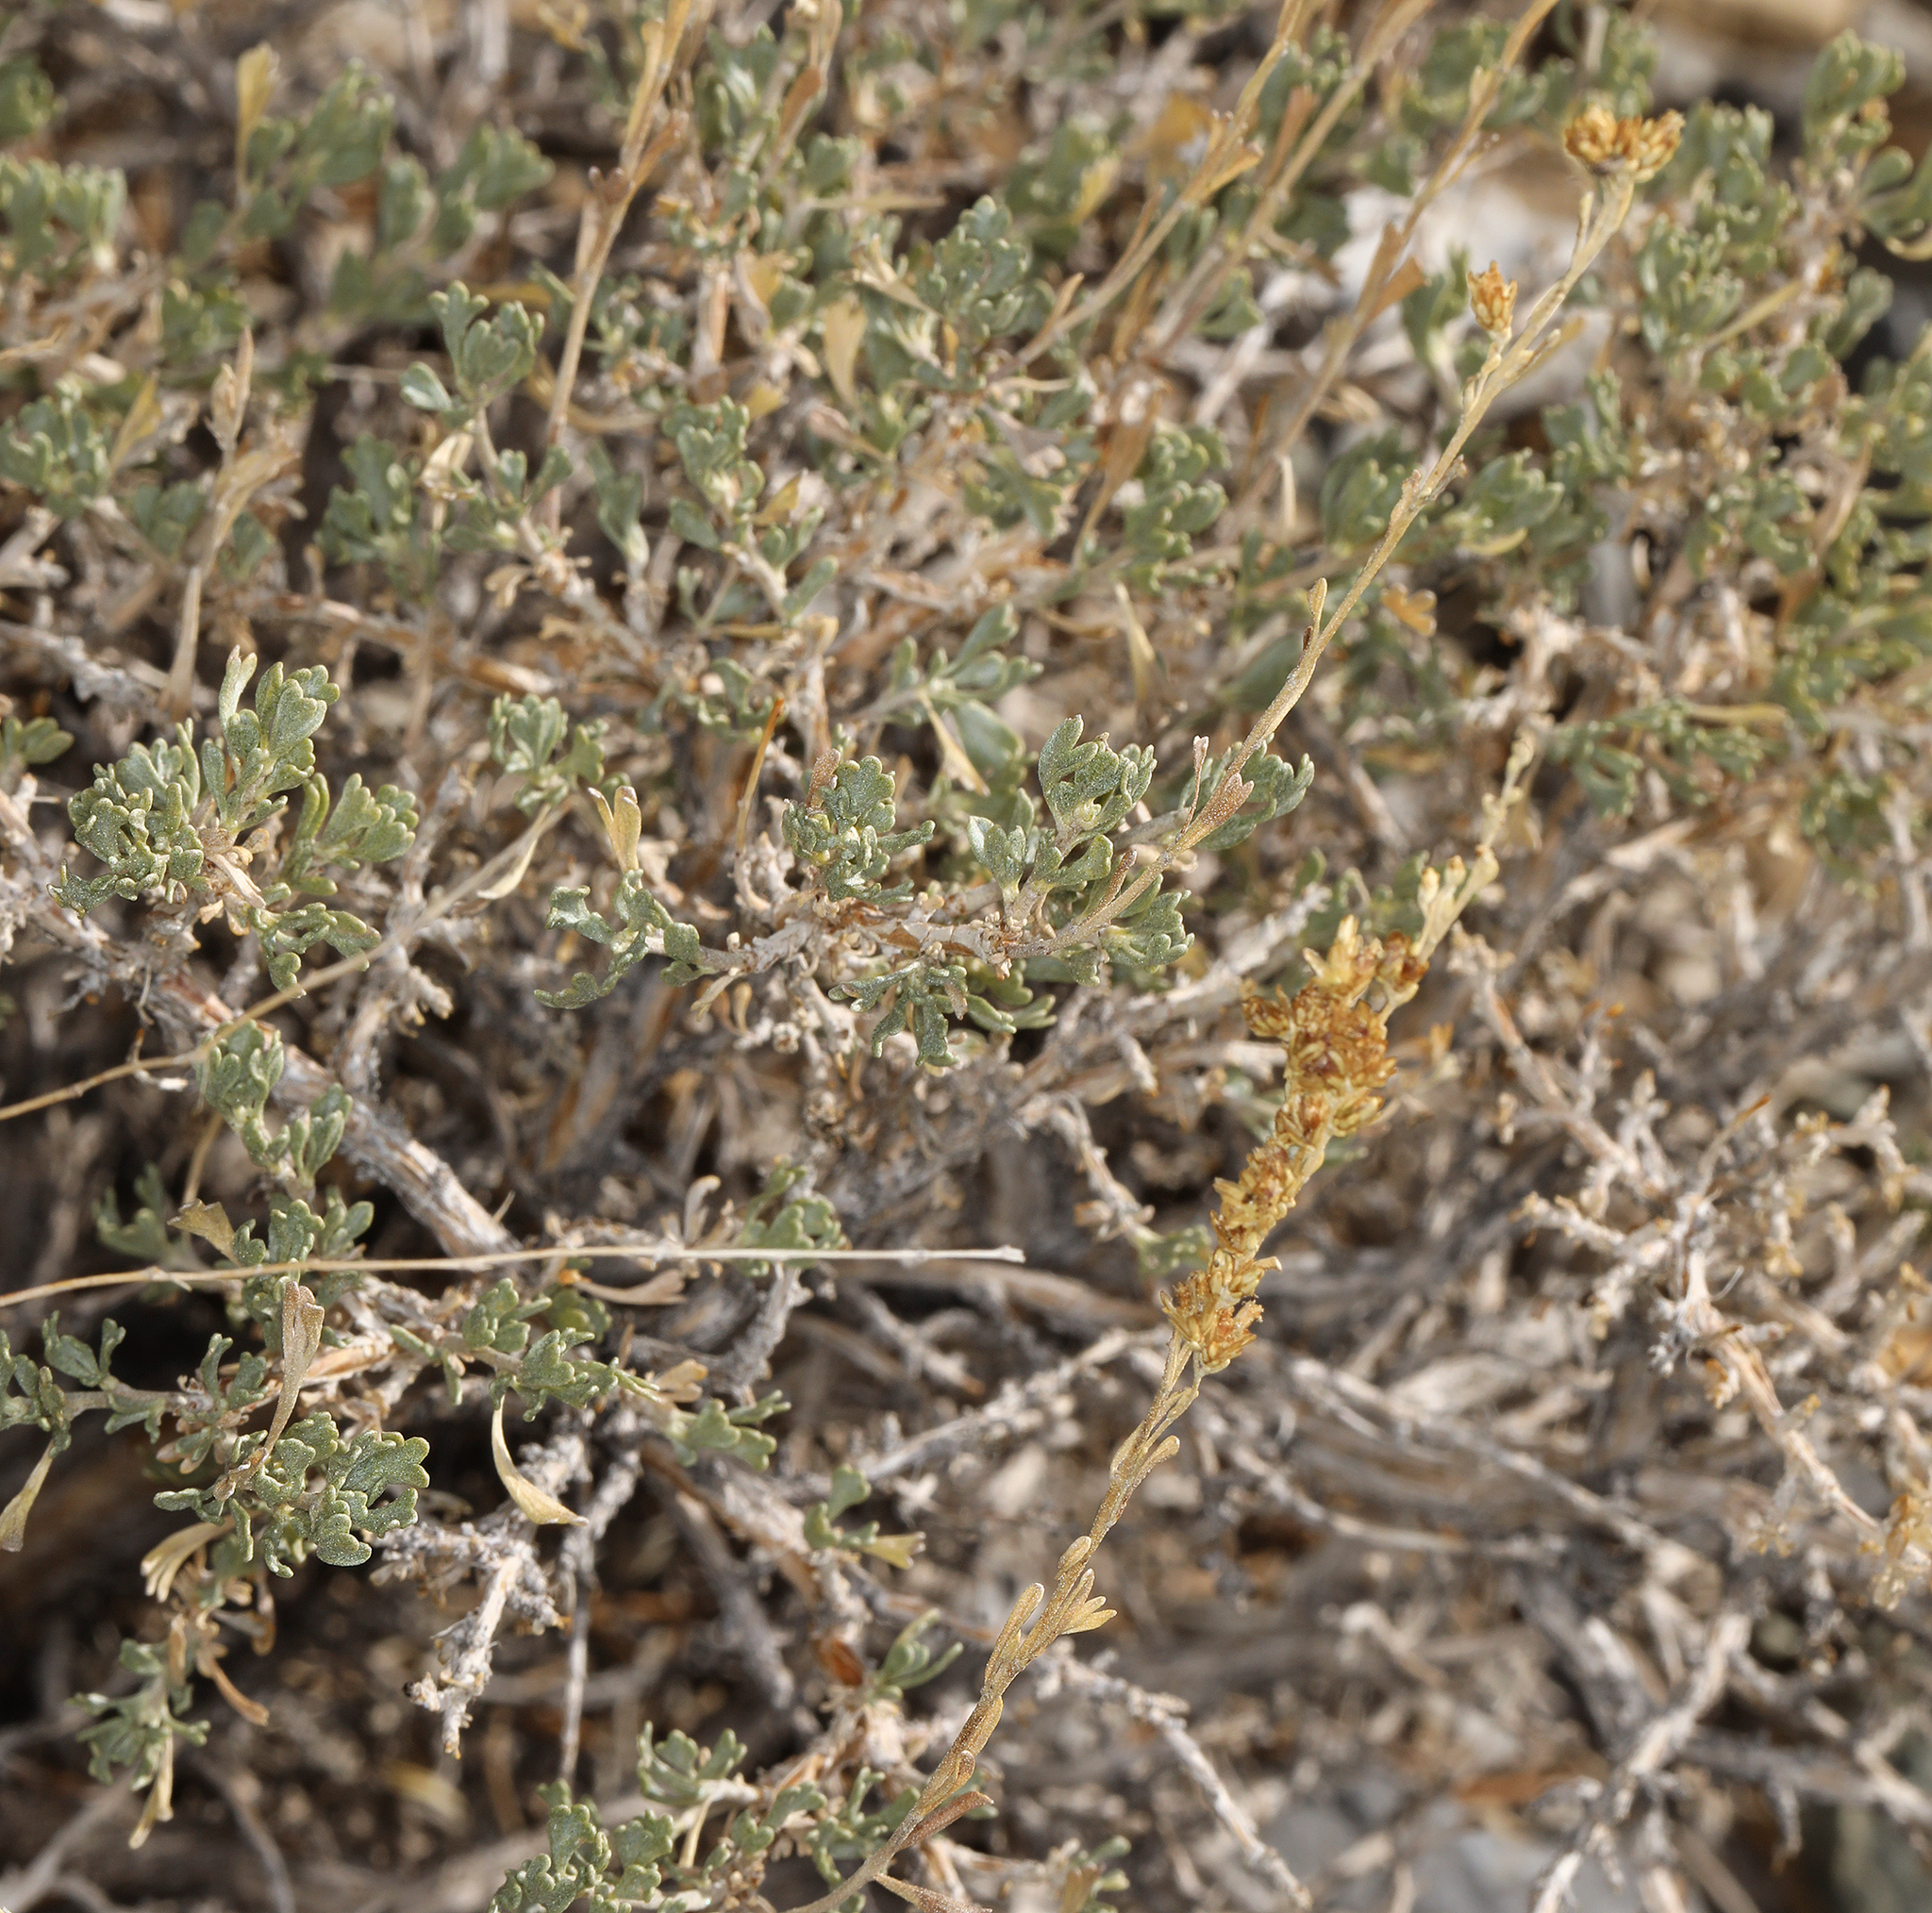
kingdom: Plantae
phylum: Tracheophyta
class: Magnoliopsida
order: Asterales
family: Asteraceae
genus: Artemisia
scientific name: Artemisia nova
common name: Black-sage
